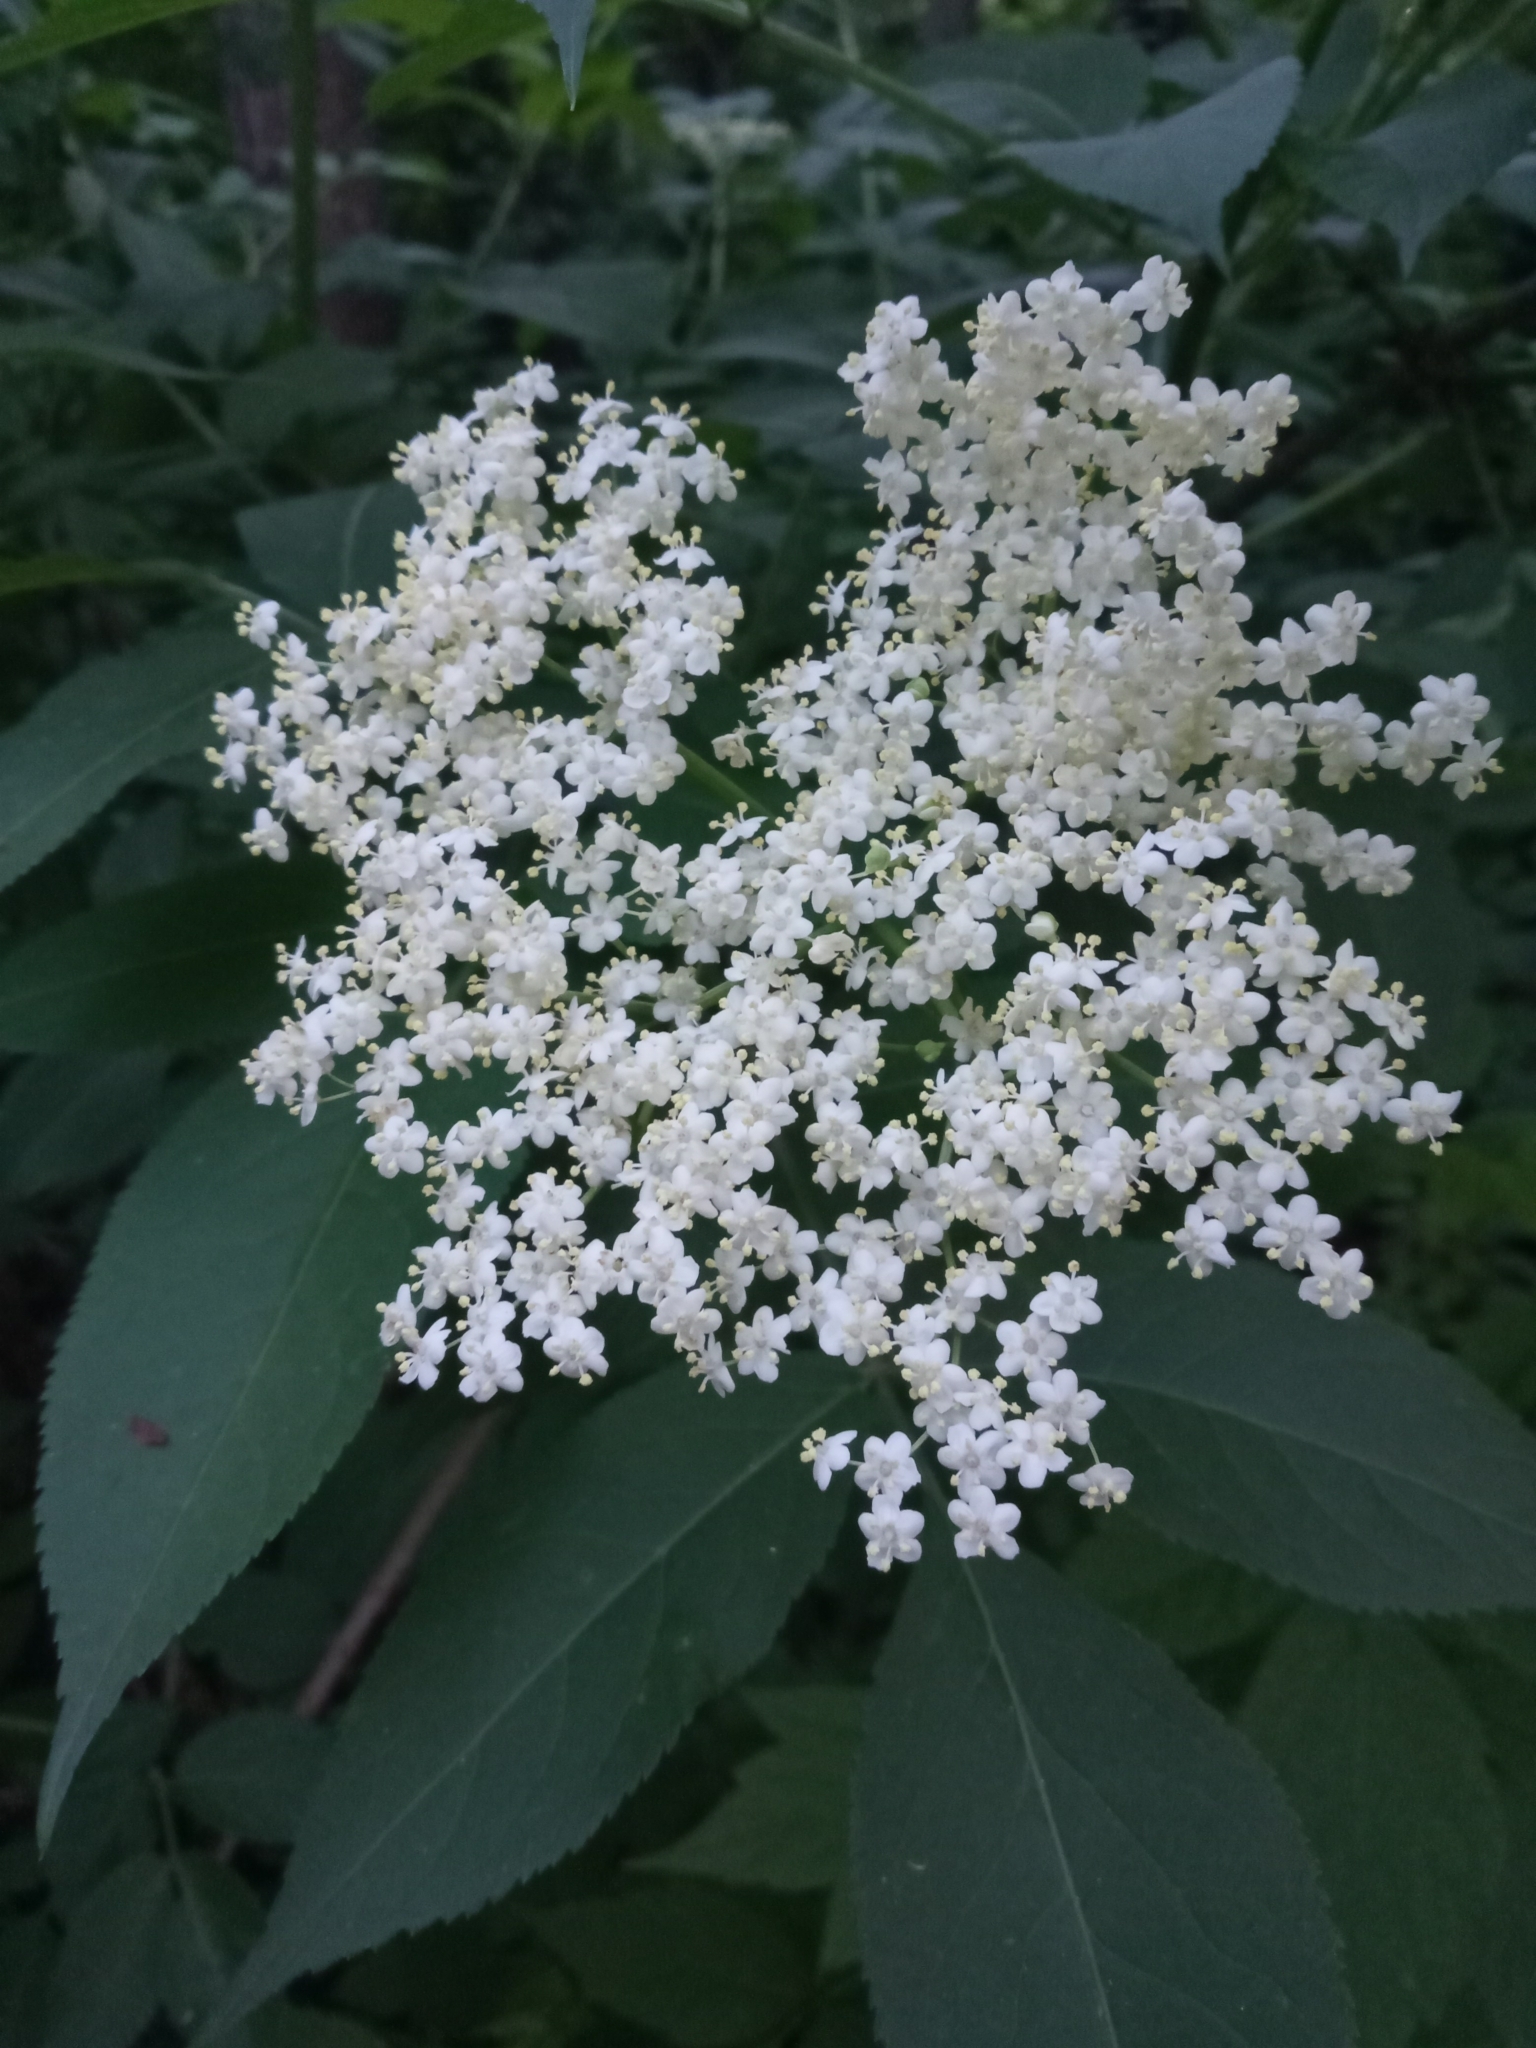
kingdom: Plantae
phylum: Tracheophyta
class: Magnoliopsida
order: Dipsacales
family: Viburnaceae
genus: Sambucus
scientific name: Sambucus nigra
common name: Elder
